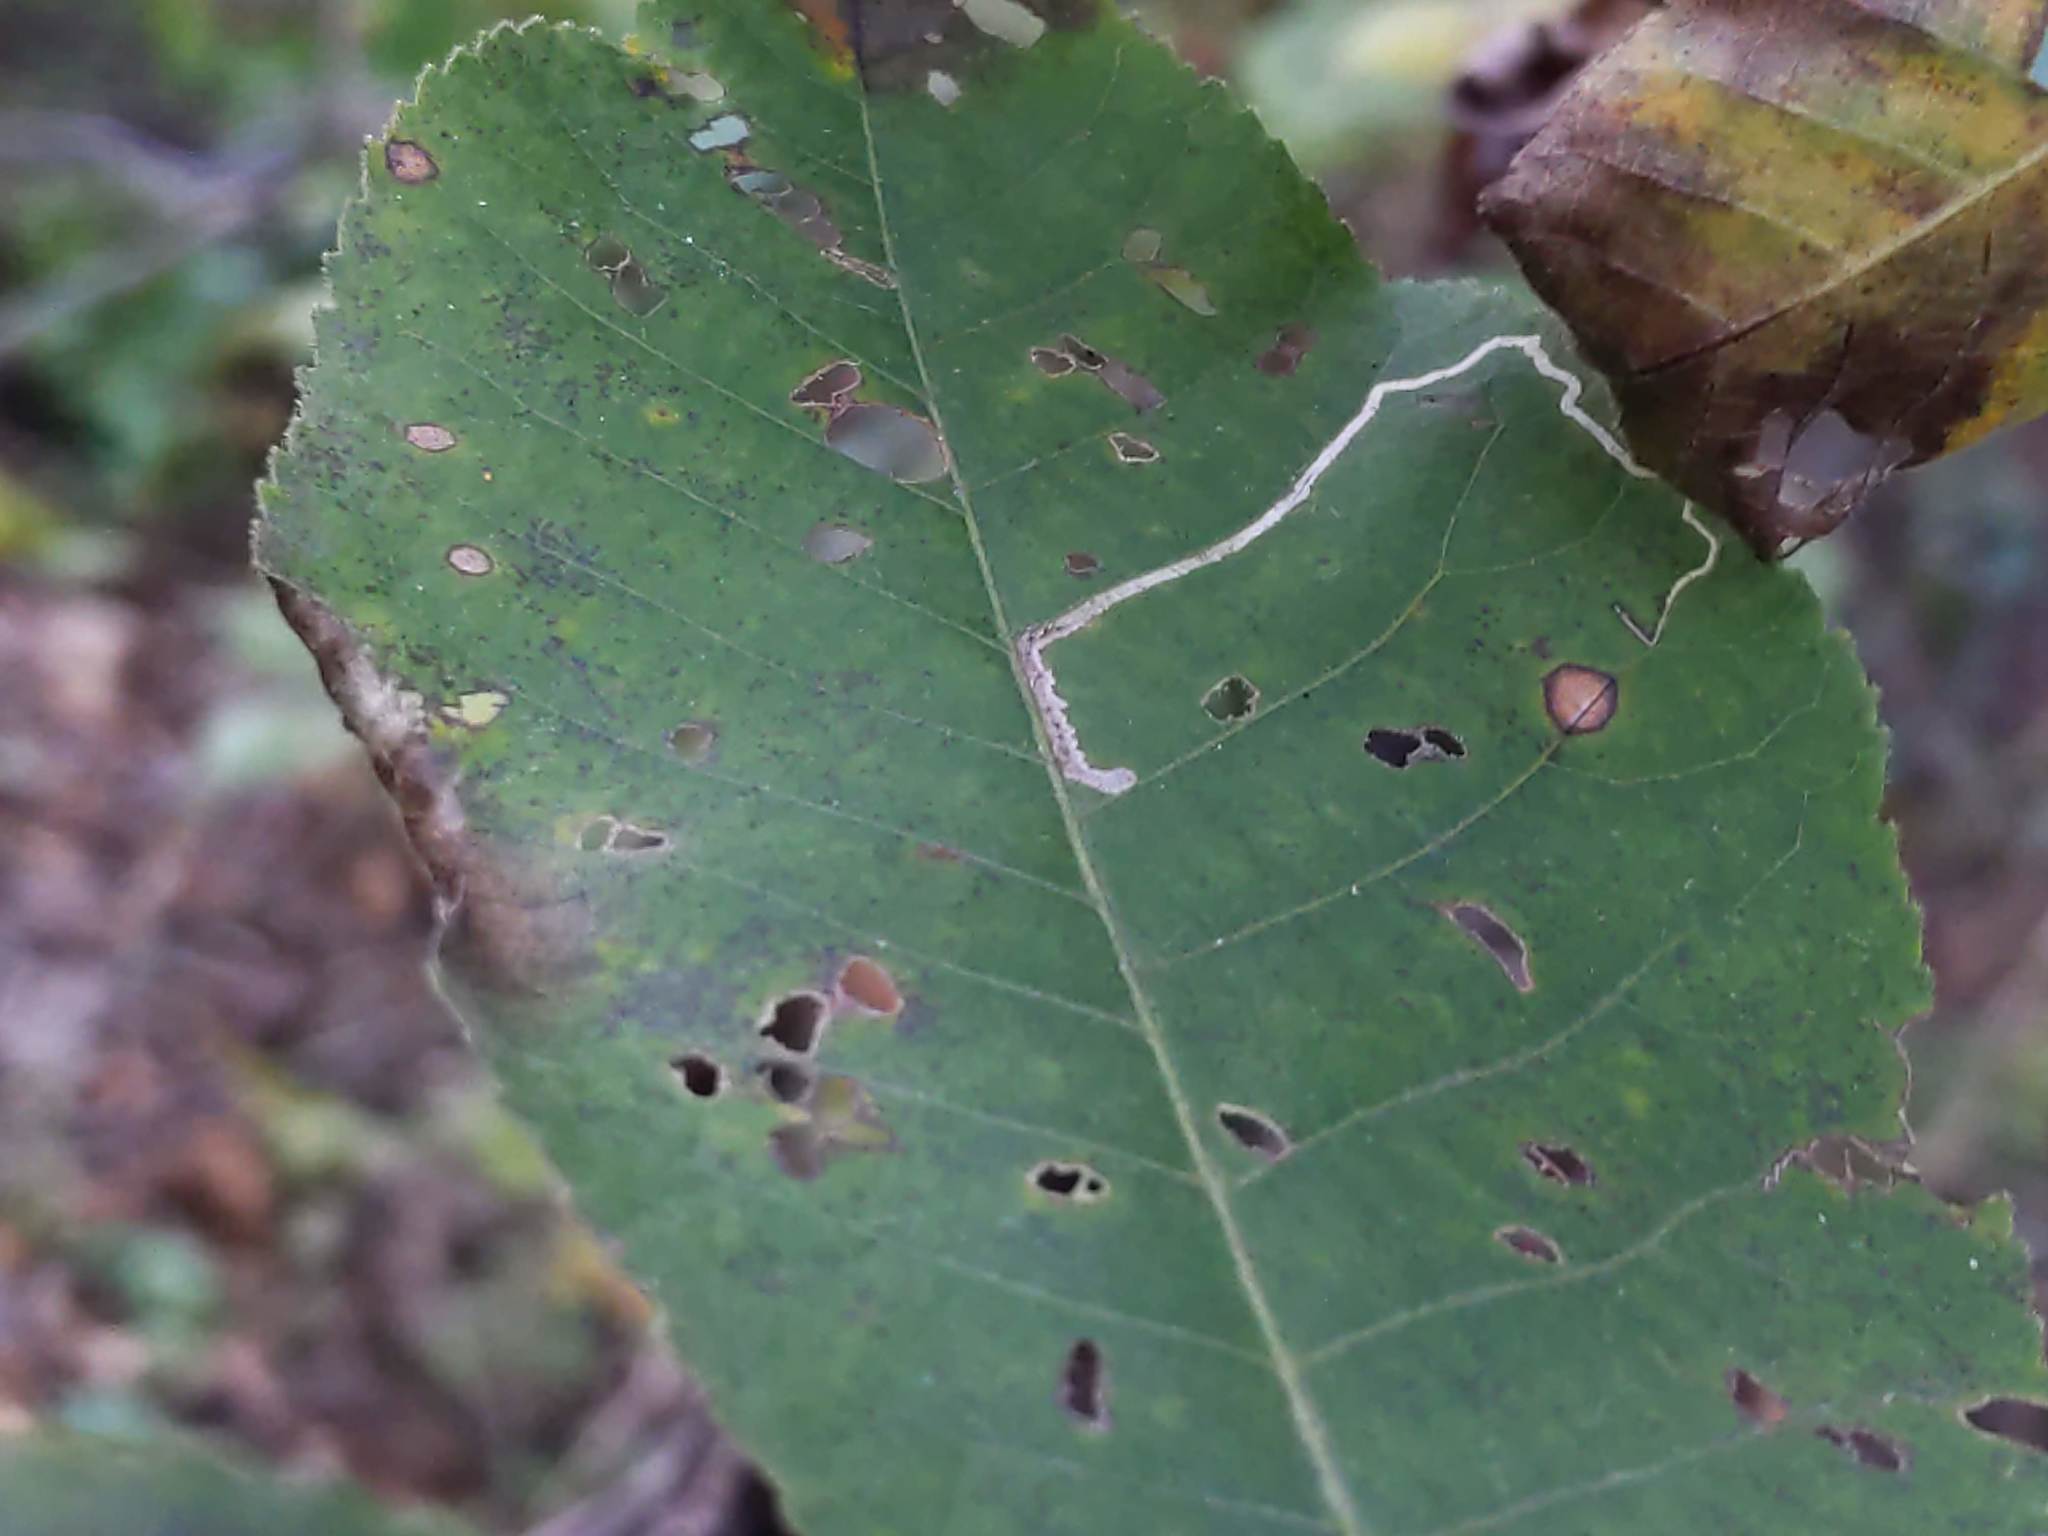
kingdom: Animalia
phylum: Arthropoda
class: Insecta
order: Lepidoptera
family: Nepticulidae
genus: Stigmella
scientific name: Stigmella caryaefoliella
